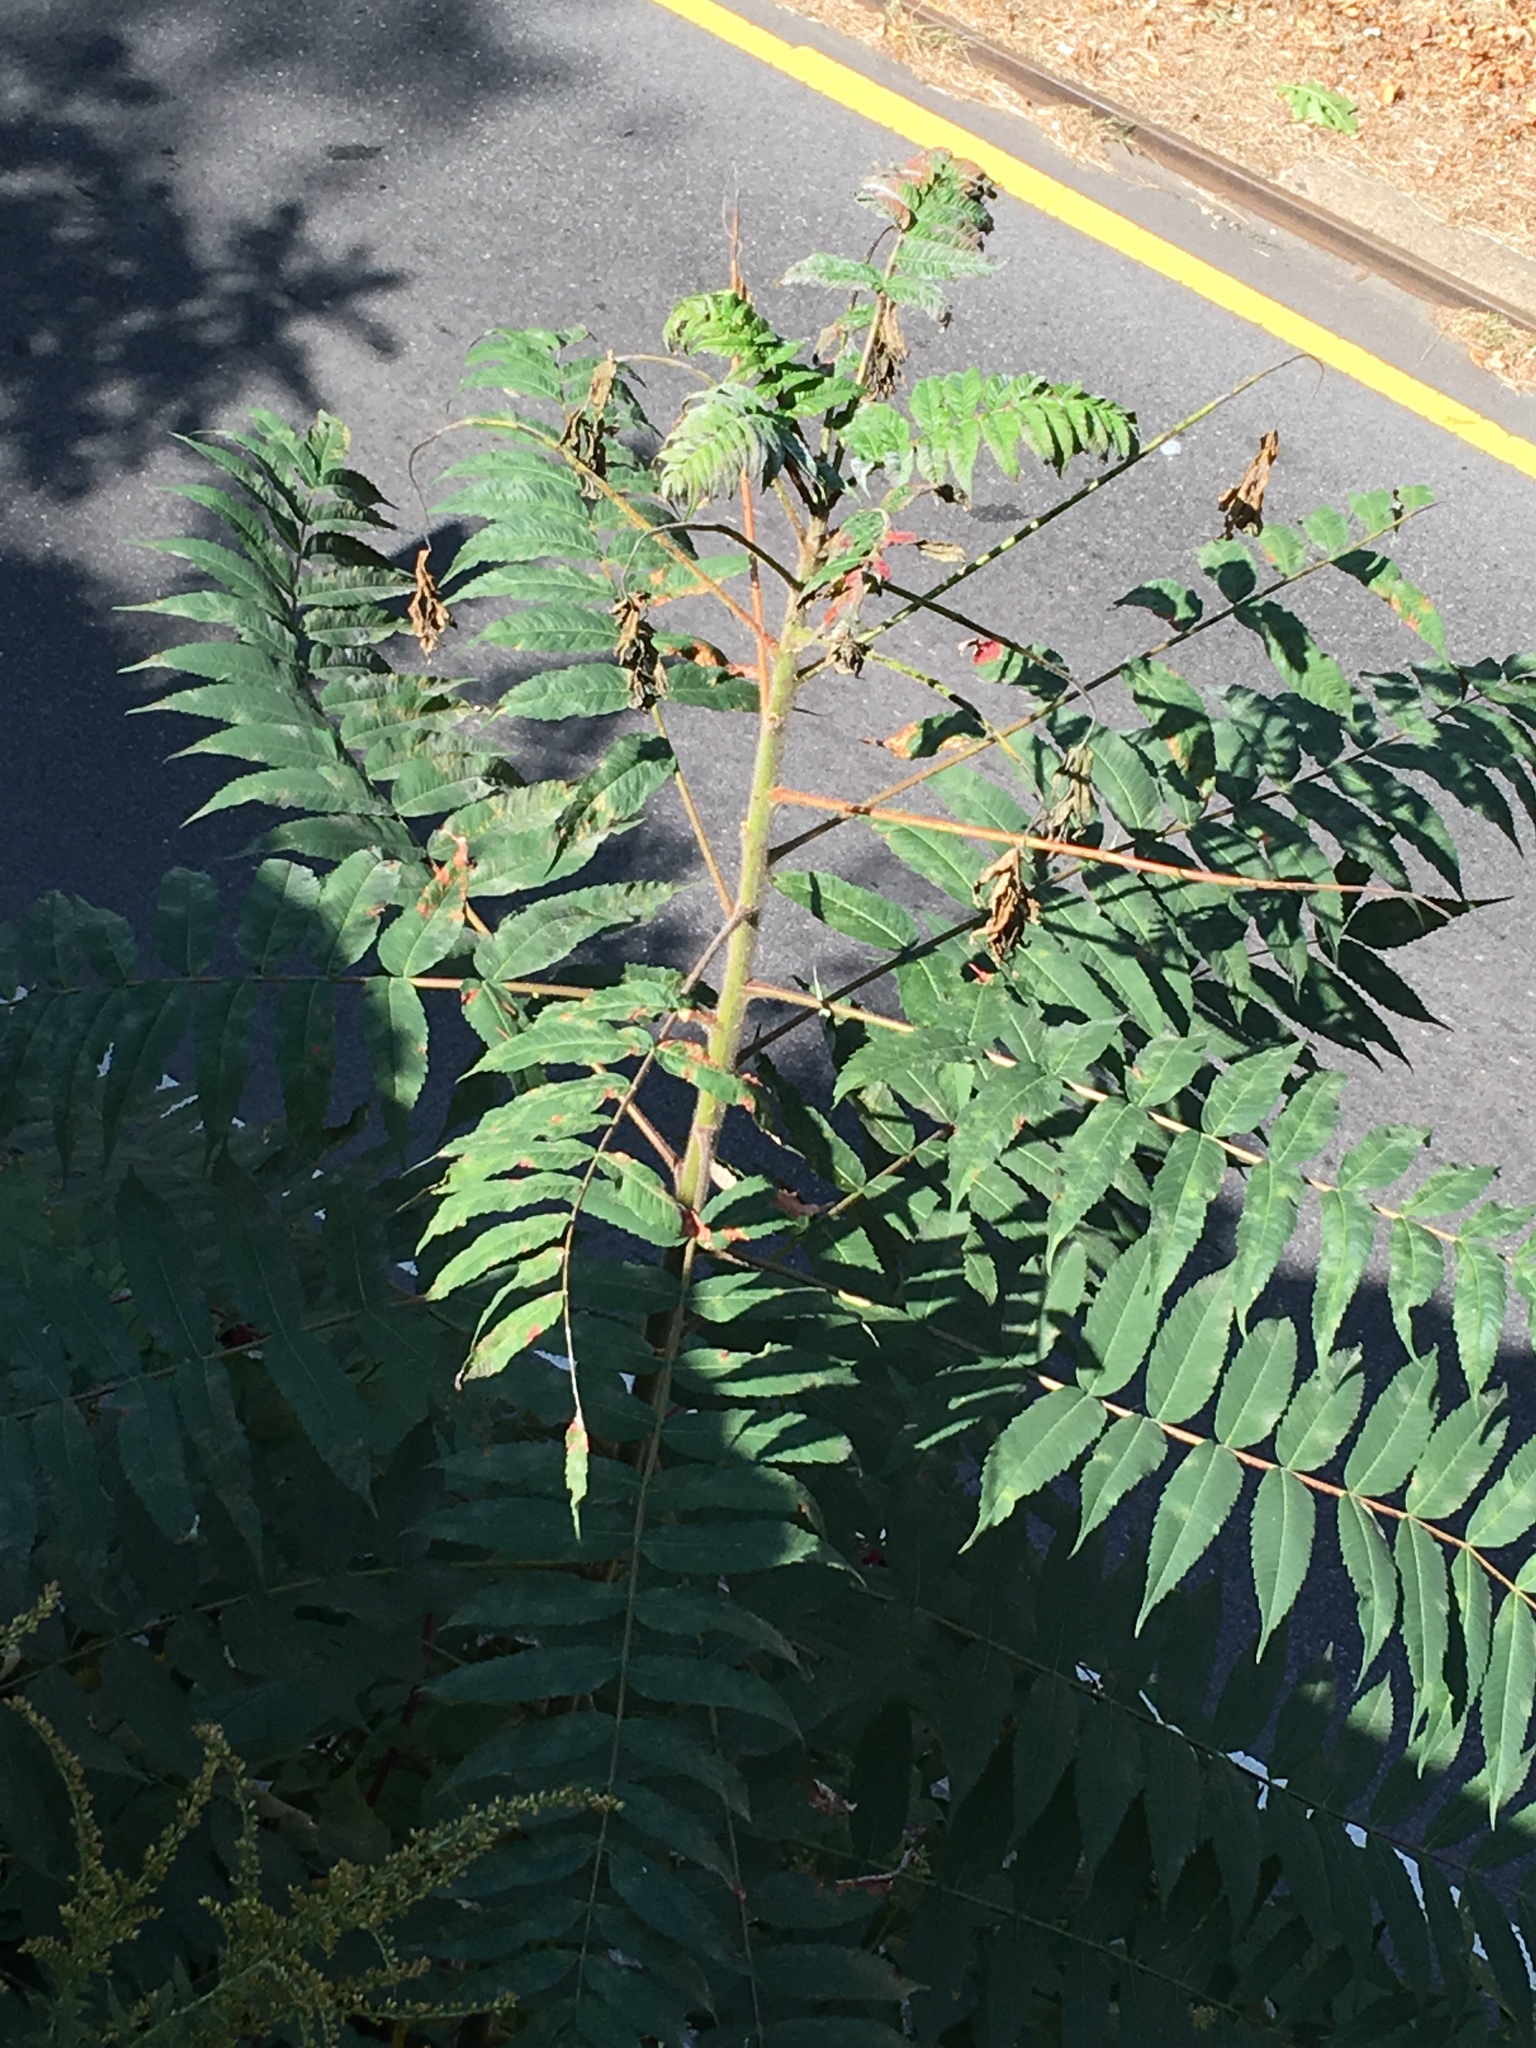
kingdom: Plantae
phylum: Tracheophyta
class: Magnoliopsida
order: Sapindales
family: Anacardiaceae
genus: Rhus
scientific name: Rhus typhina
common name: Staghorn sumac
